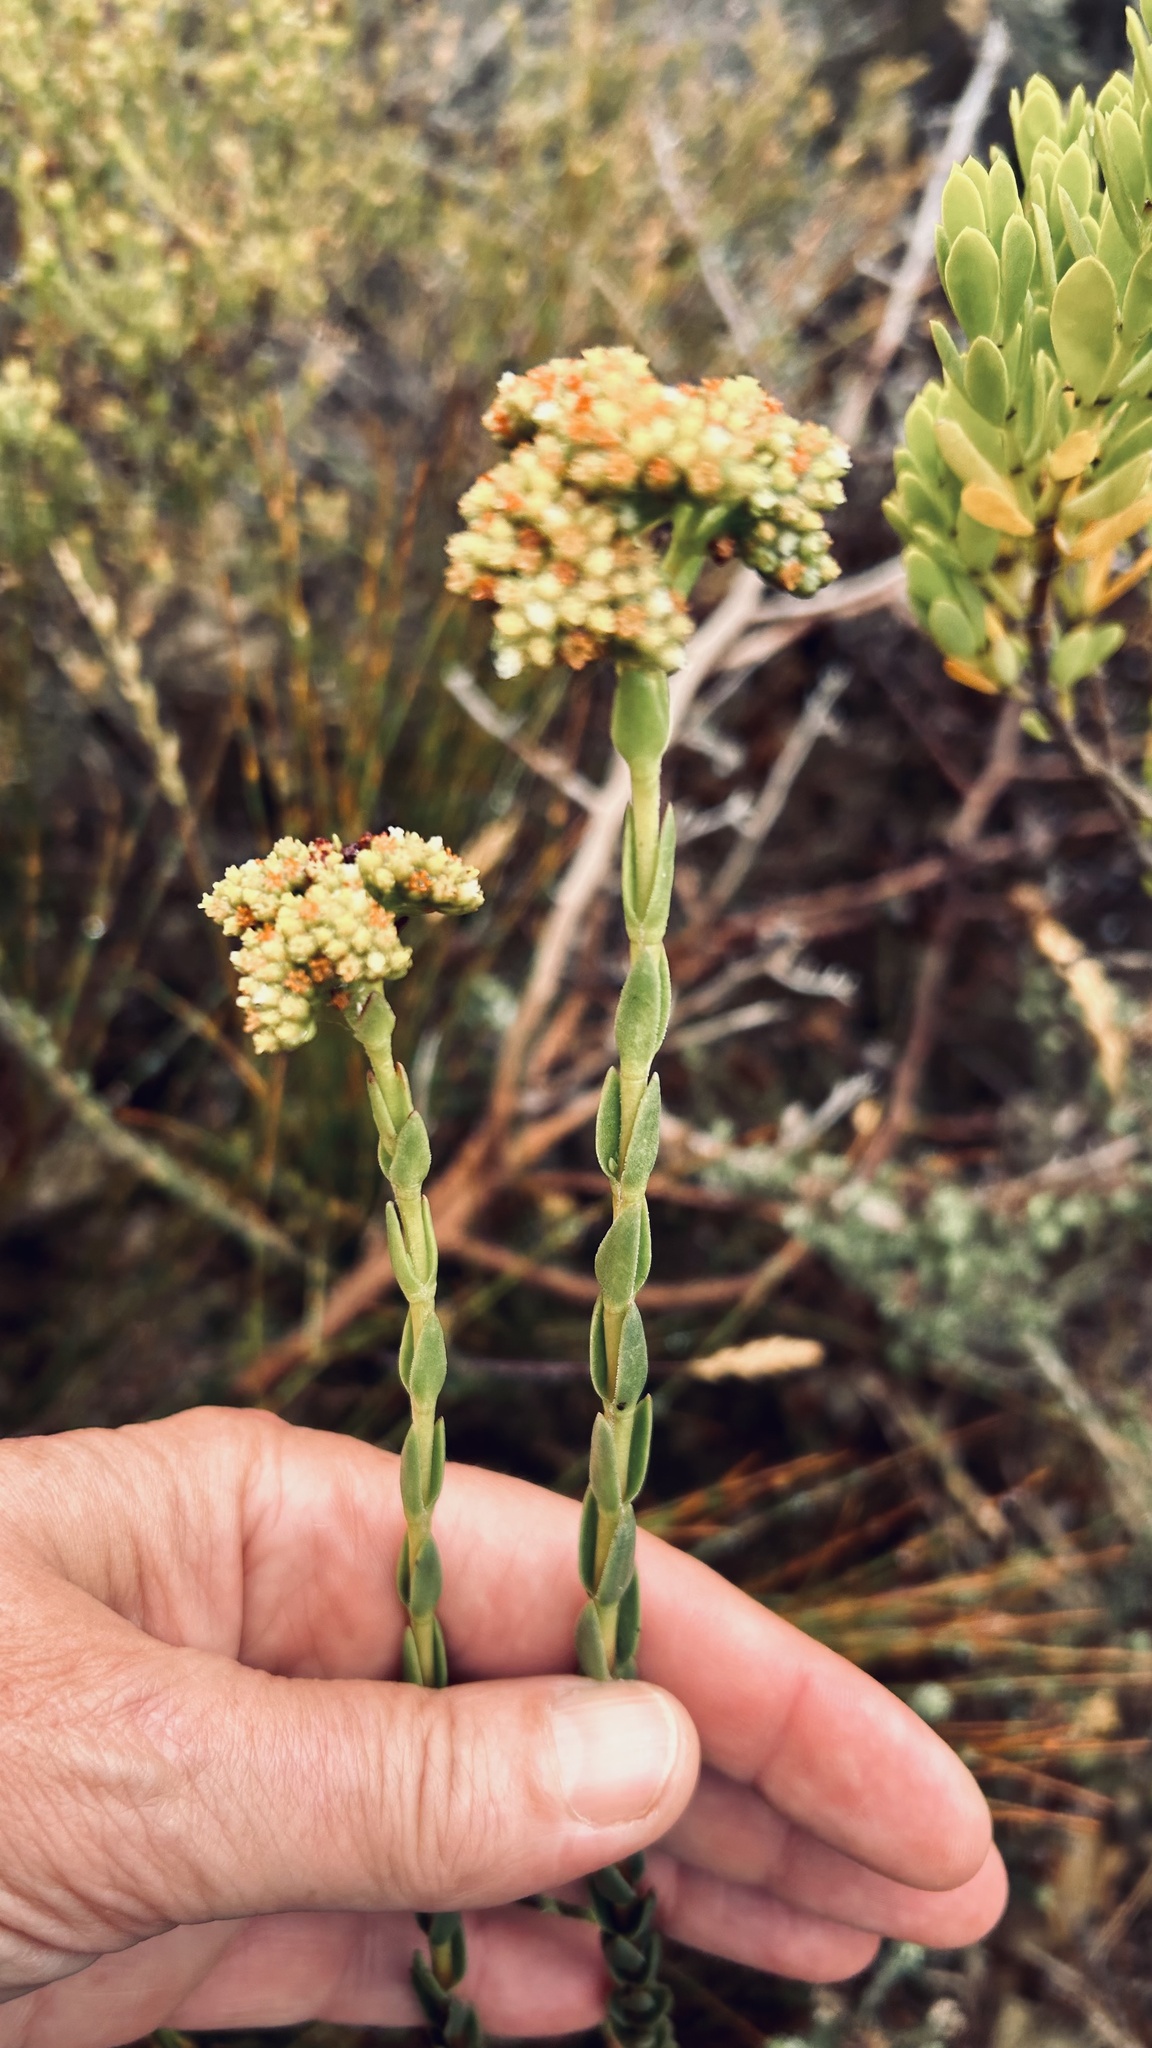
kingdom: Plantae
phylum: Tracheophyta
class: Magnoliopsida
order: Saxifragales
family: Crassulaceae
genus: Crassula
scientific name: Crassula subulata
